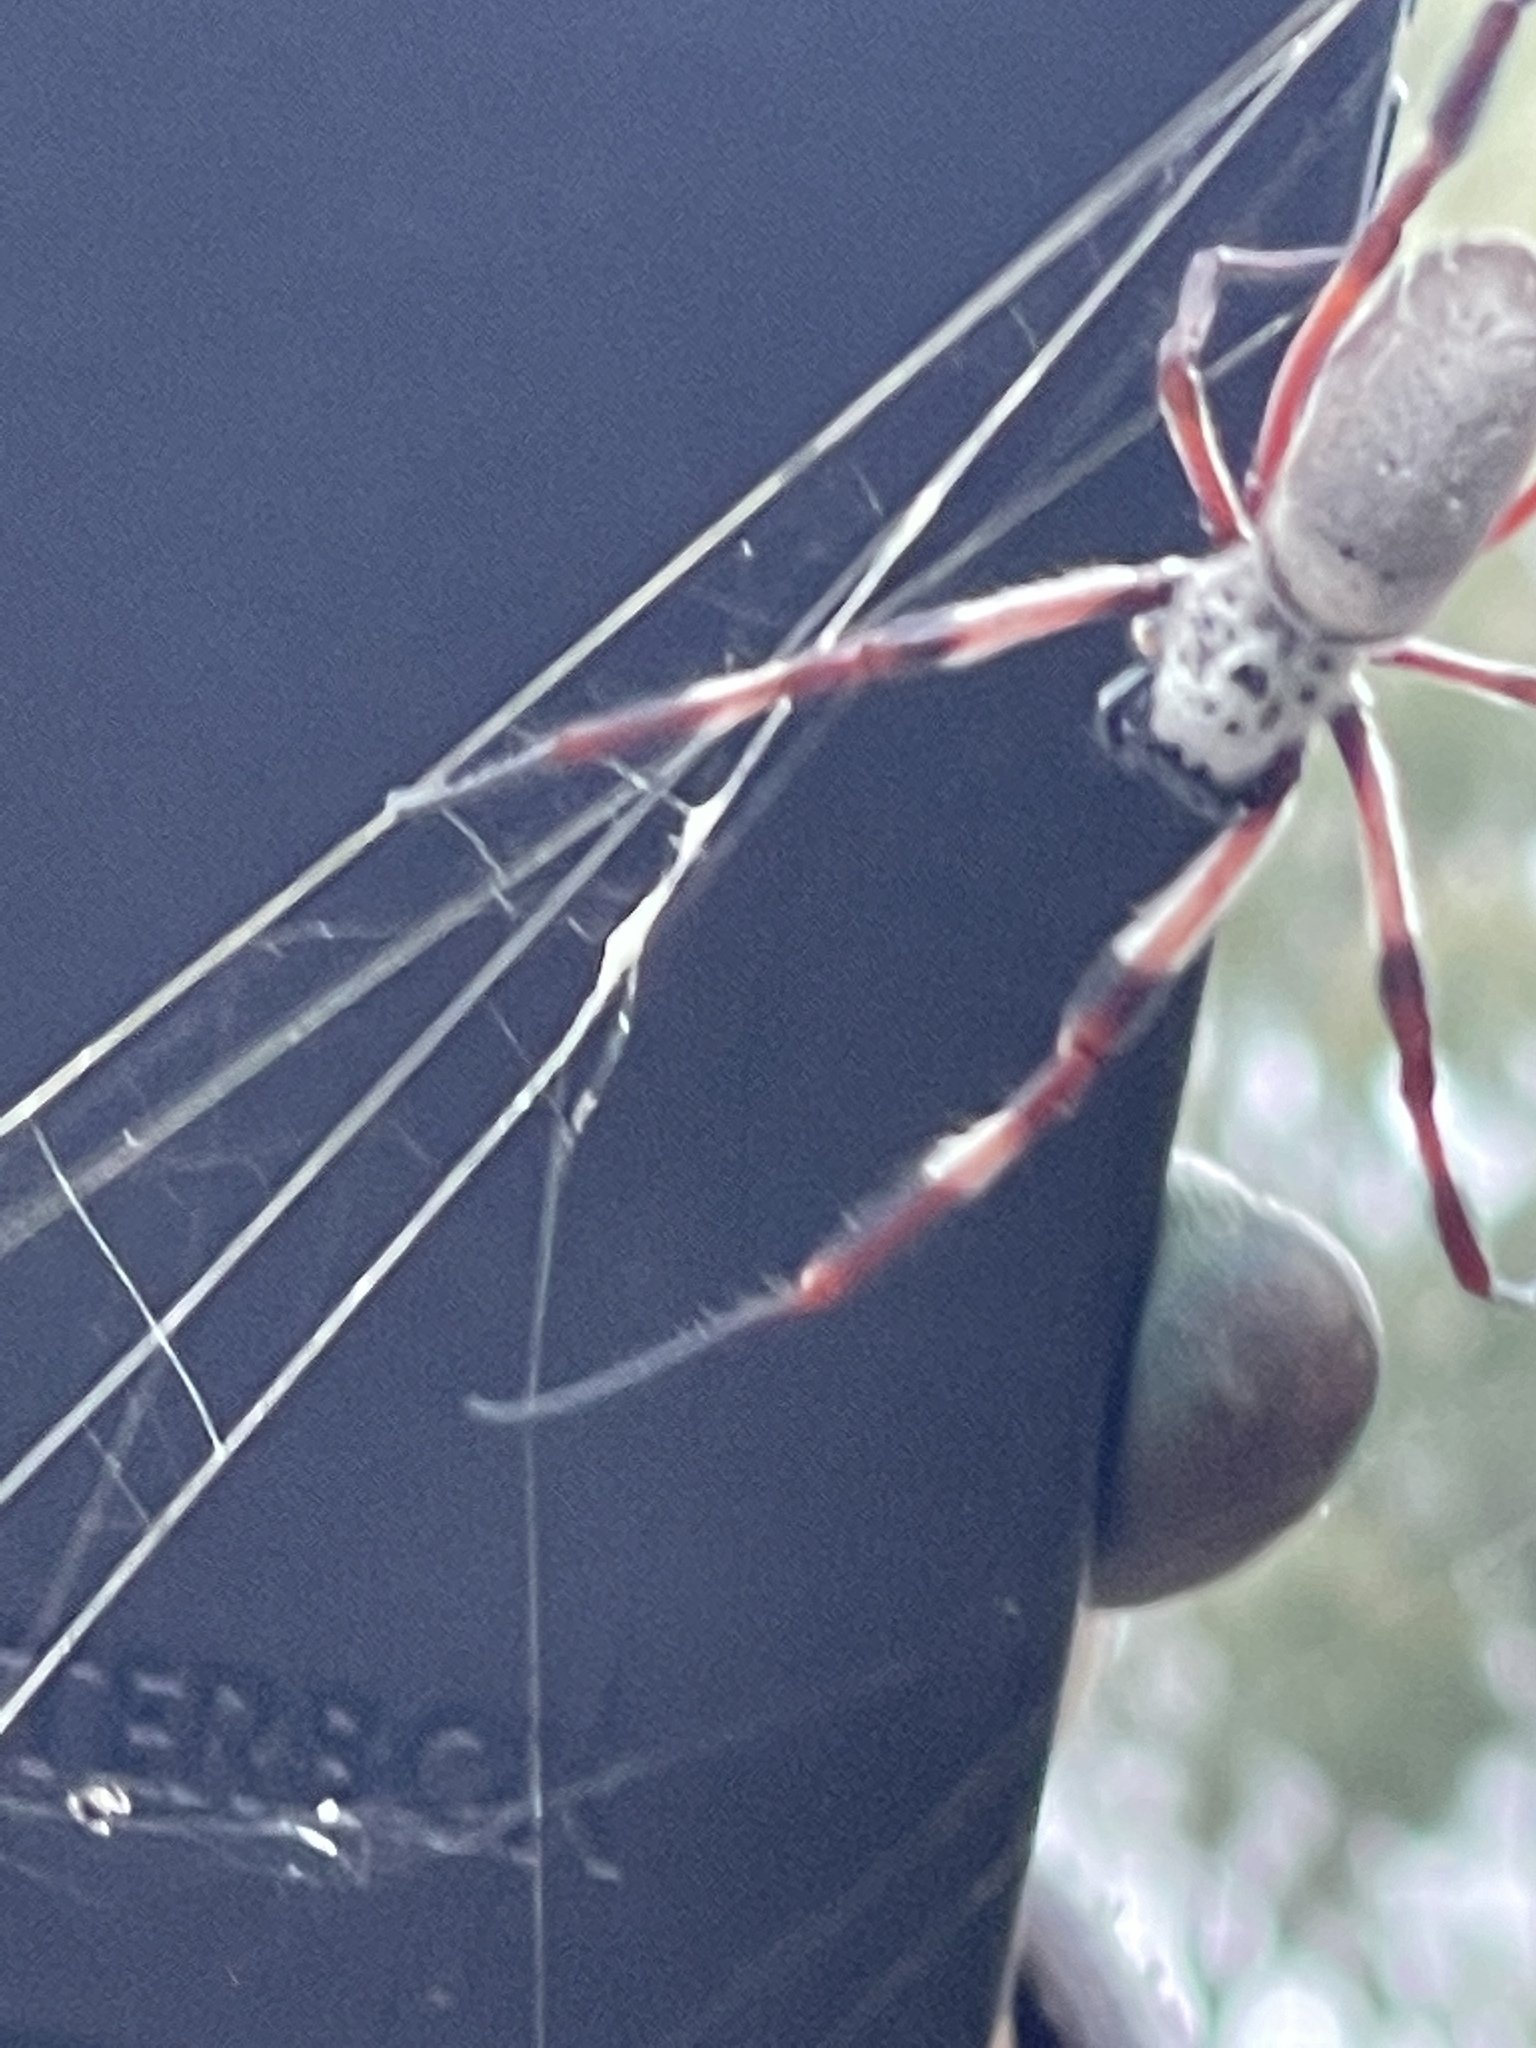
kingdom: Animalia
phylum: Arthropoda
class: Arachnida
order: Araneae
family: Araneidae
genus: Trichonephila
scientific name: Trichonephila edulis
